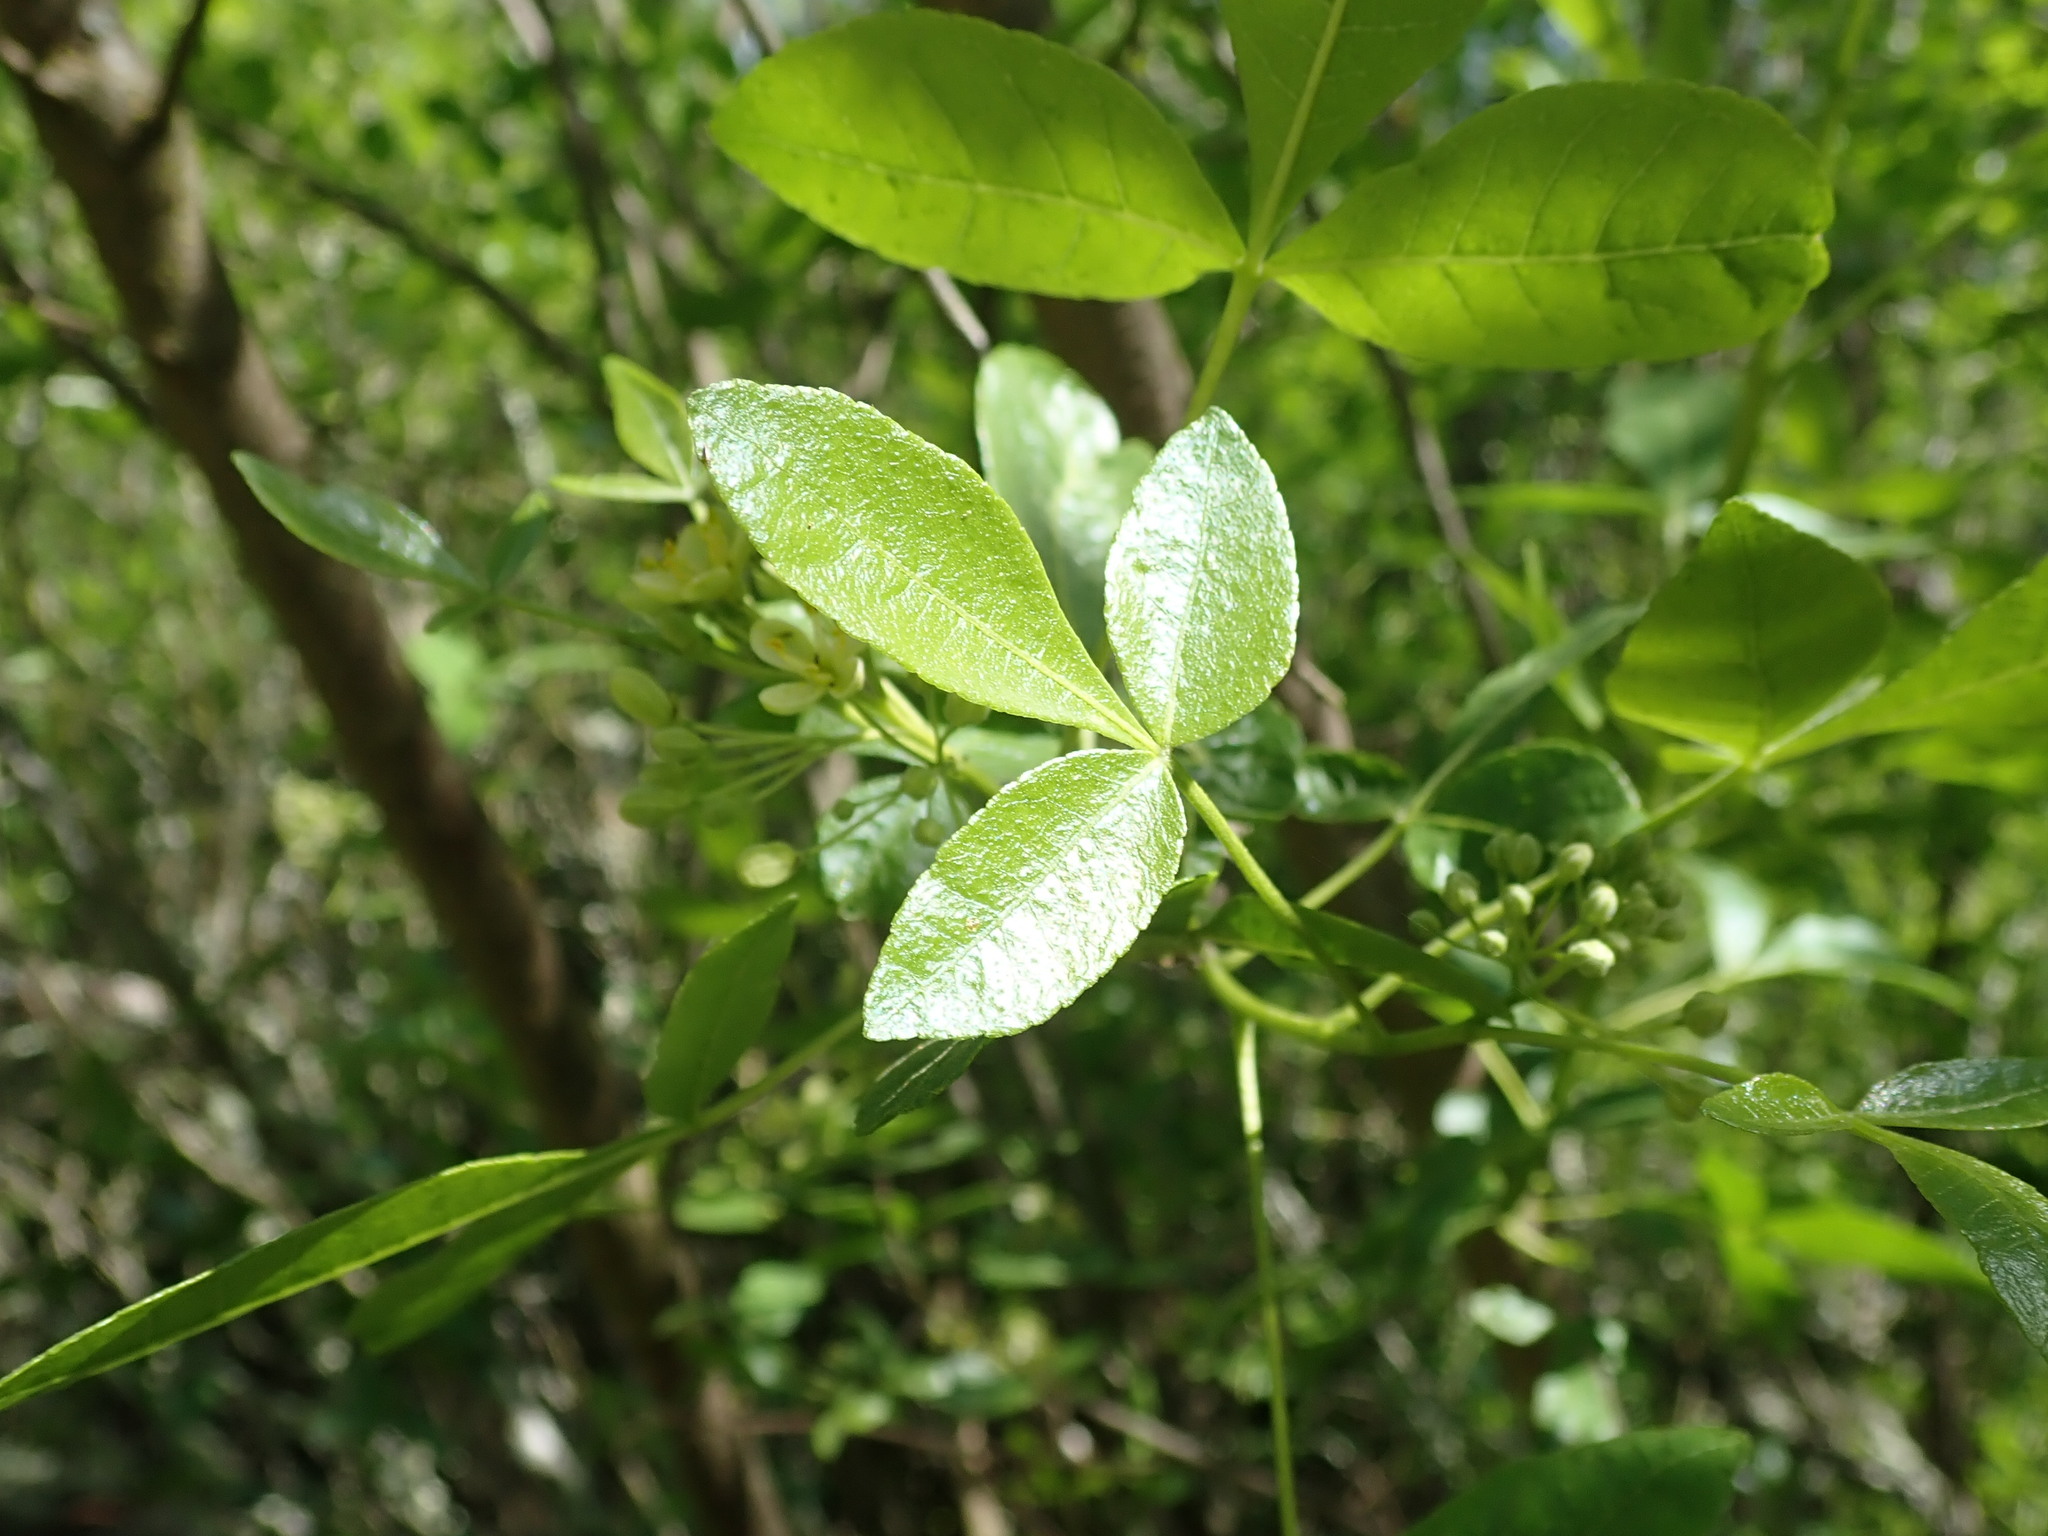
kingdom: Plantae
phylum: Tracheophyta
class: Magnoliopsida
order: Sapindales
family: Rutaceae
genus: Ptelea
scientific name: Ptelea crenulata
